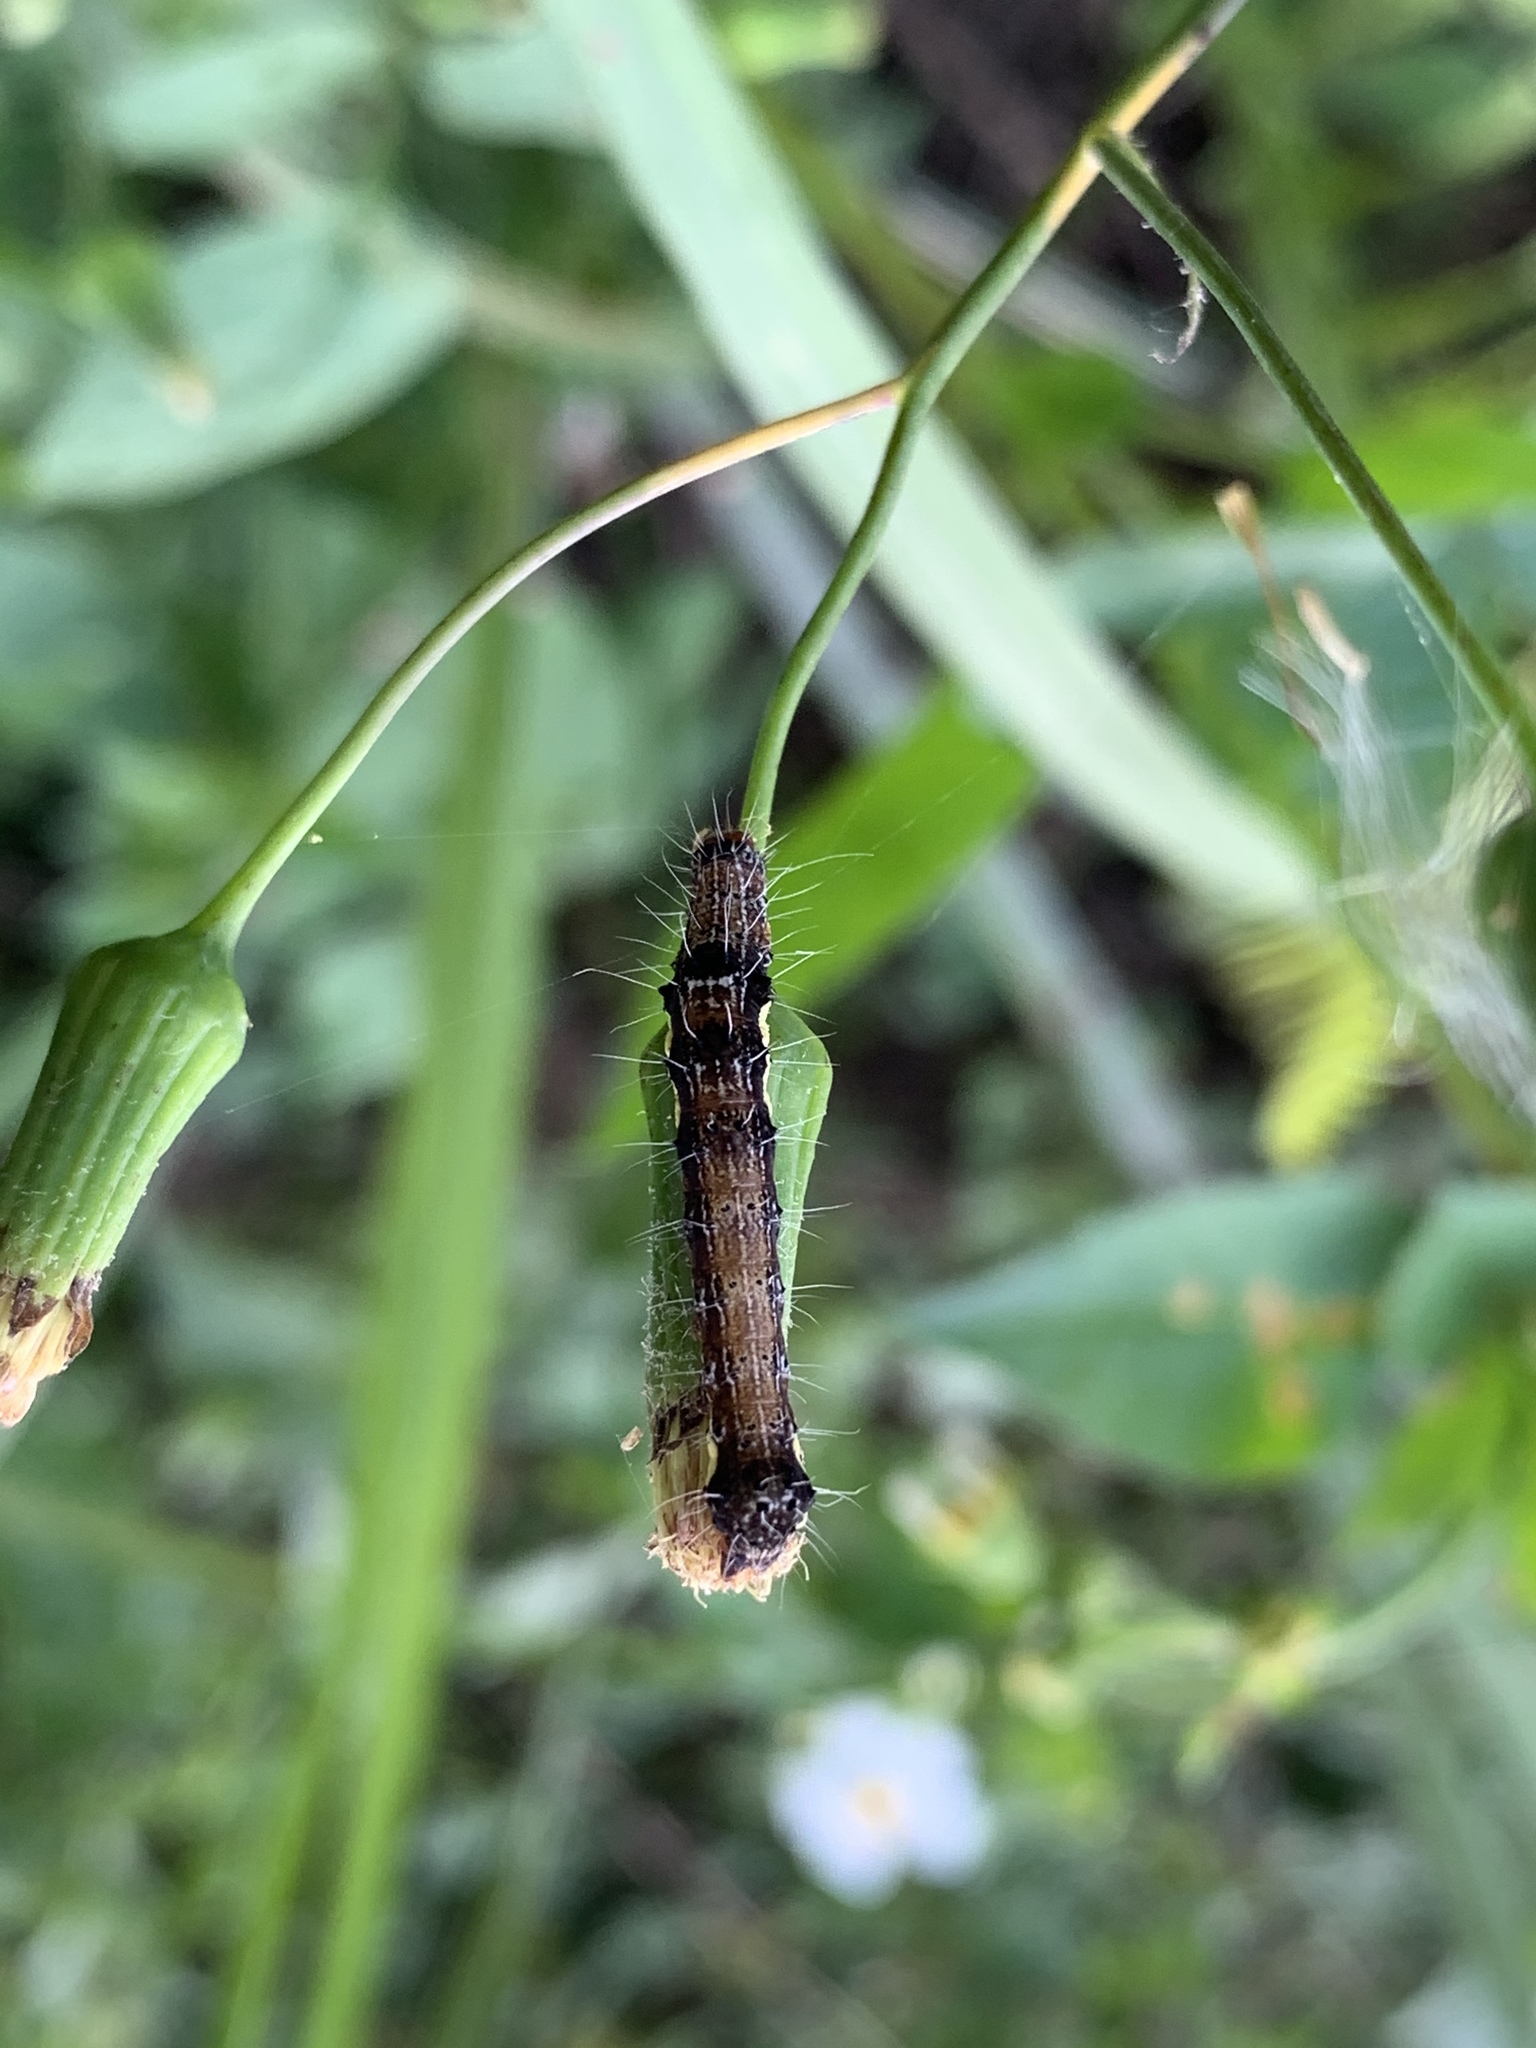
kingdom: Animalia
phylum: Arthropoda
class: Insecta
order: Lepidoptera
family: Noctuidae
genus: Tiracola
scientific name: Tiracola aureata
